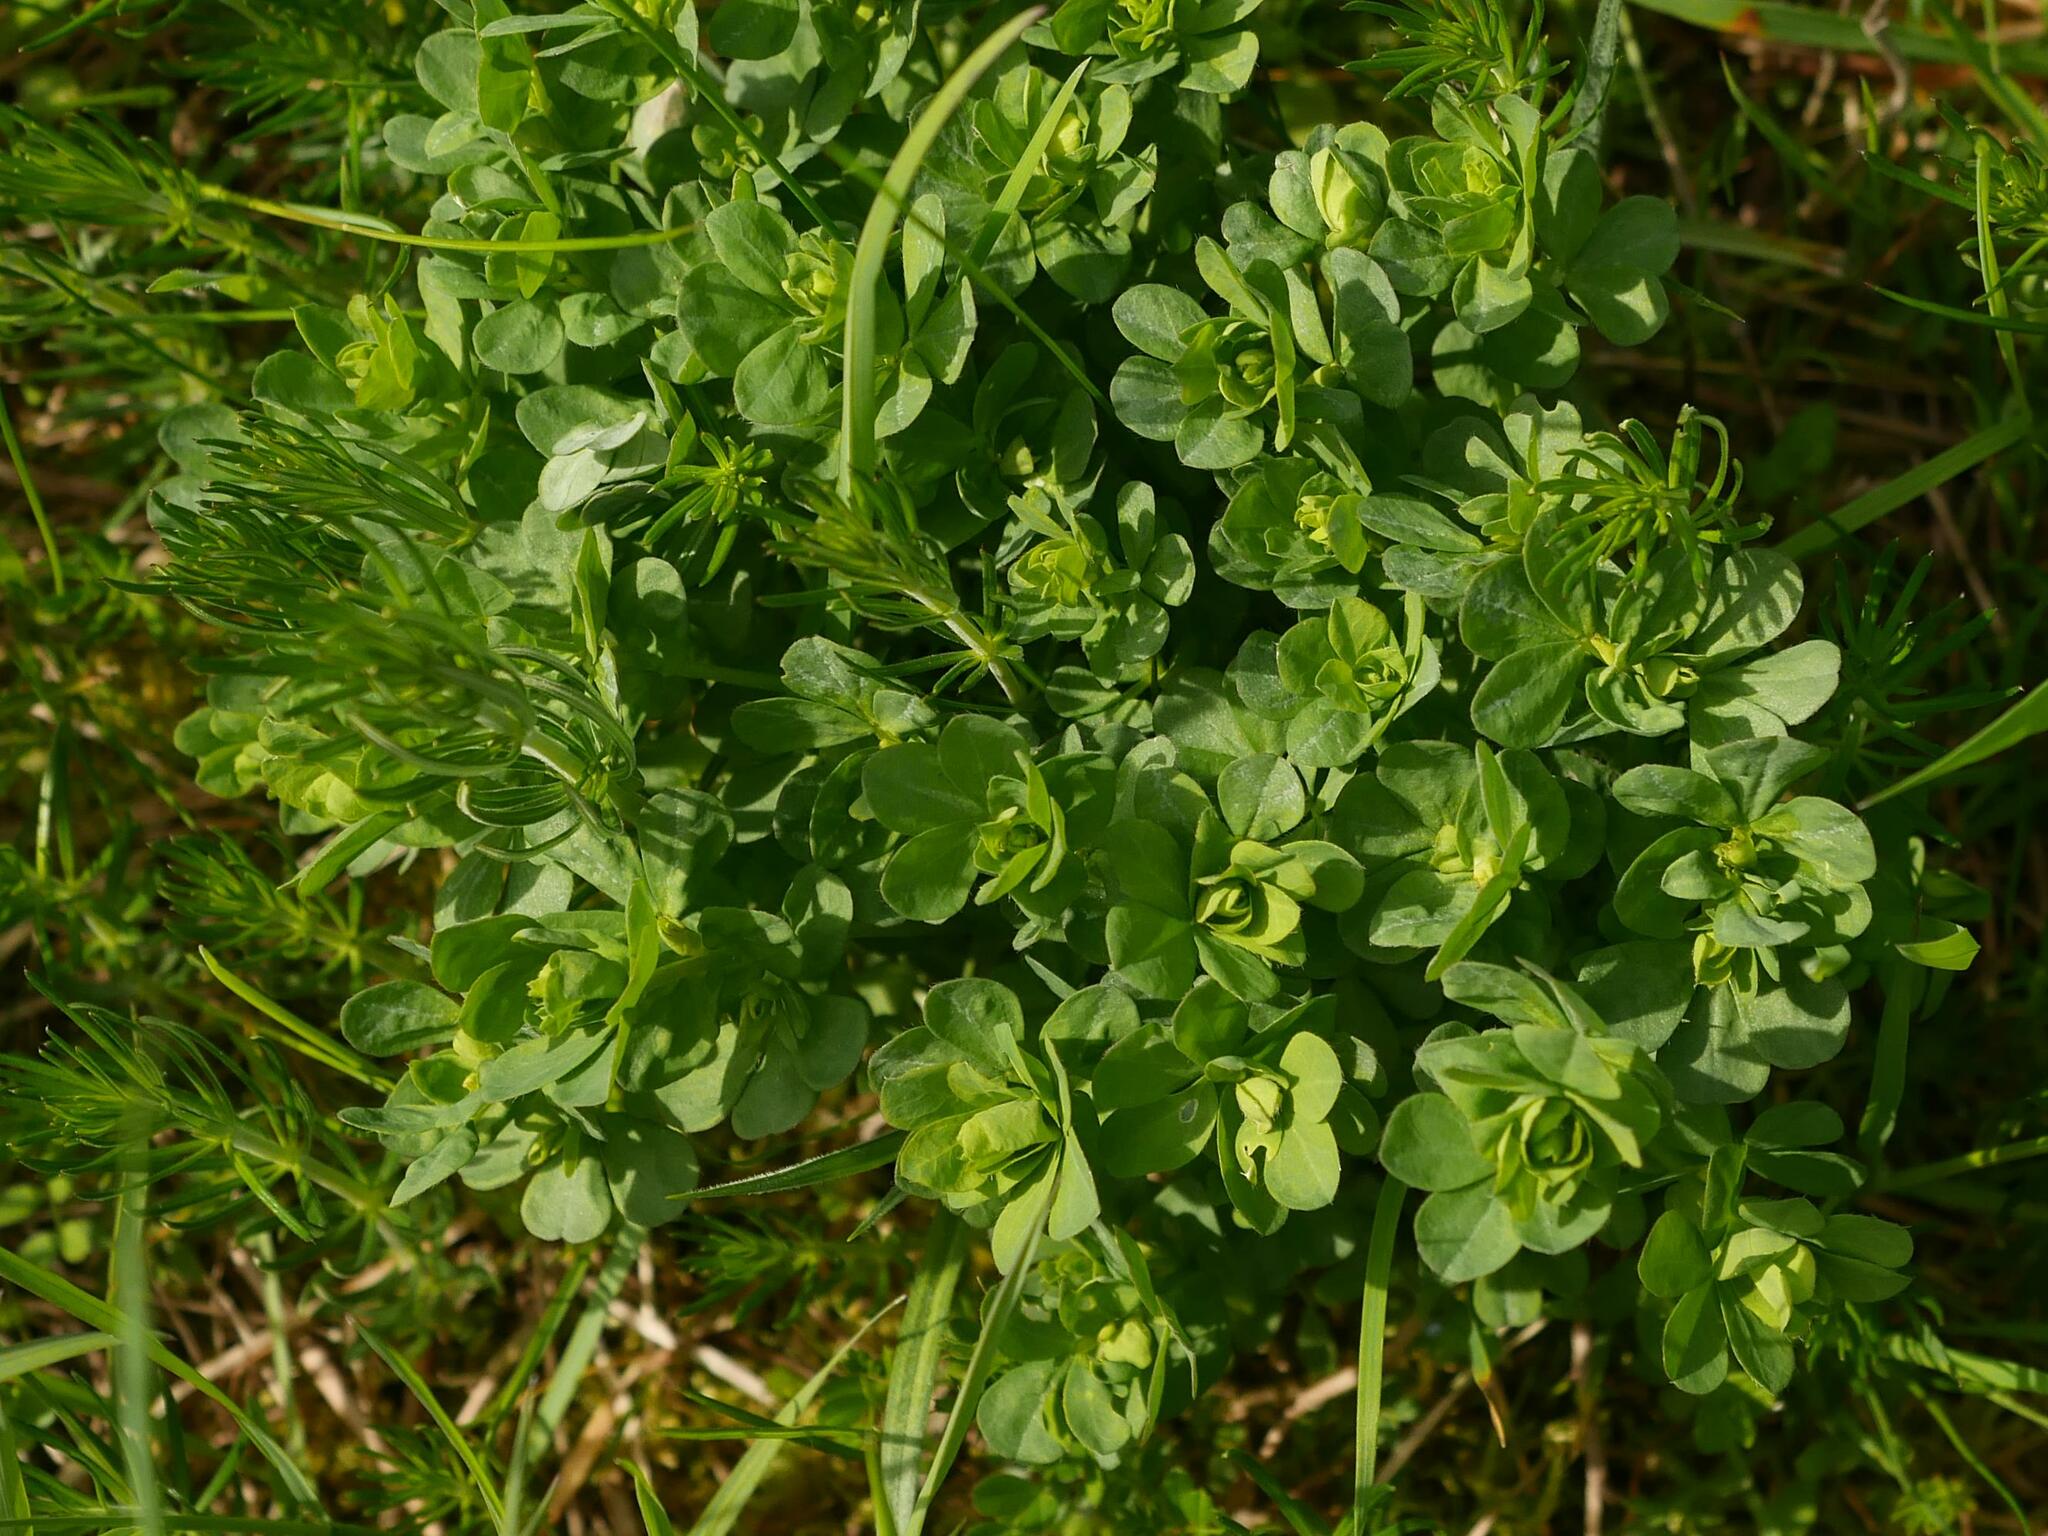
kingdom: Plantae
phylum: Tracheophyta
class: Magnoliopsida
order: Fabales
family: Fabaceae
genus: Lotus
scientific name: Lotus corniculatus
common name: Common bird's-foot-trefoil
